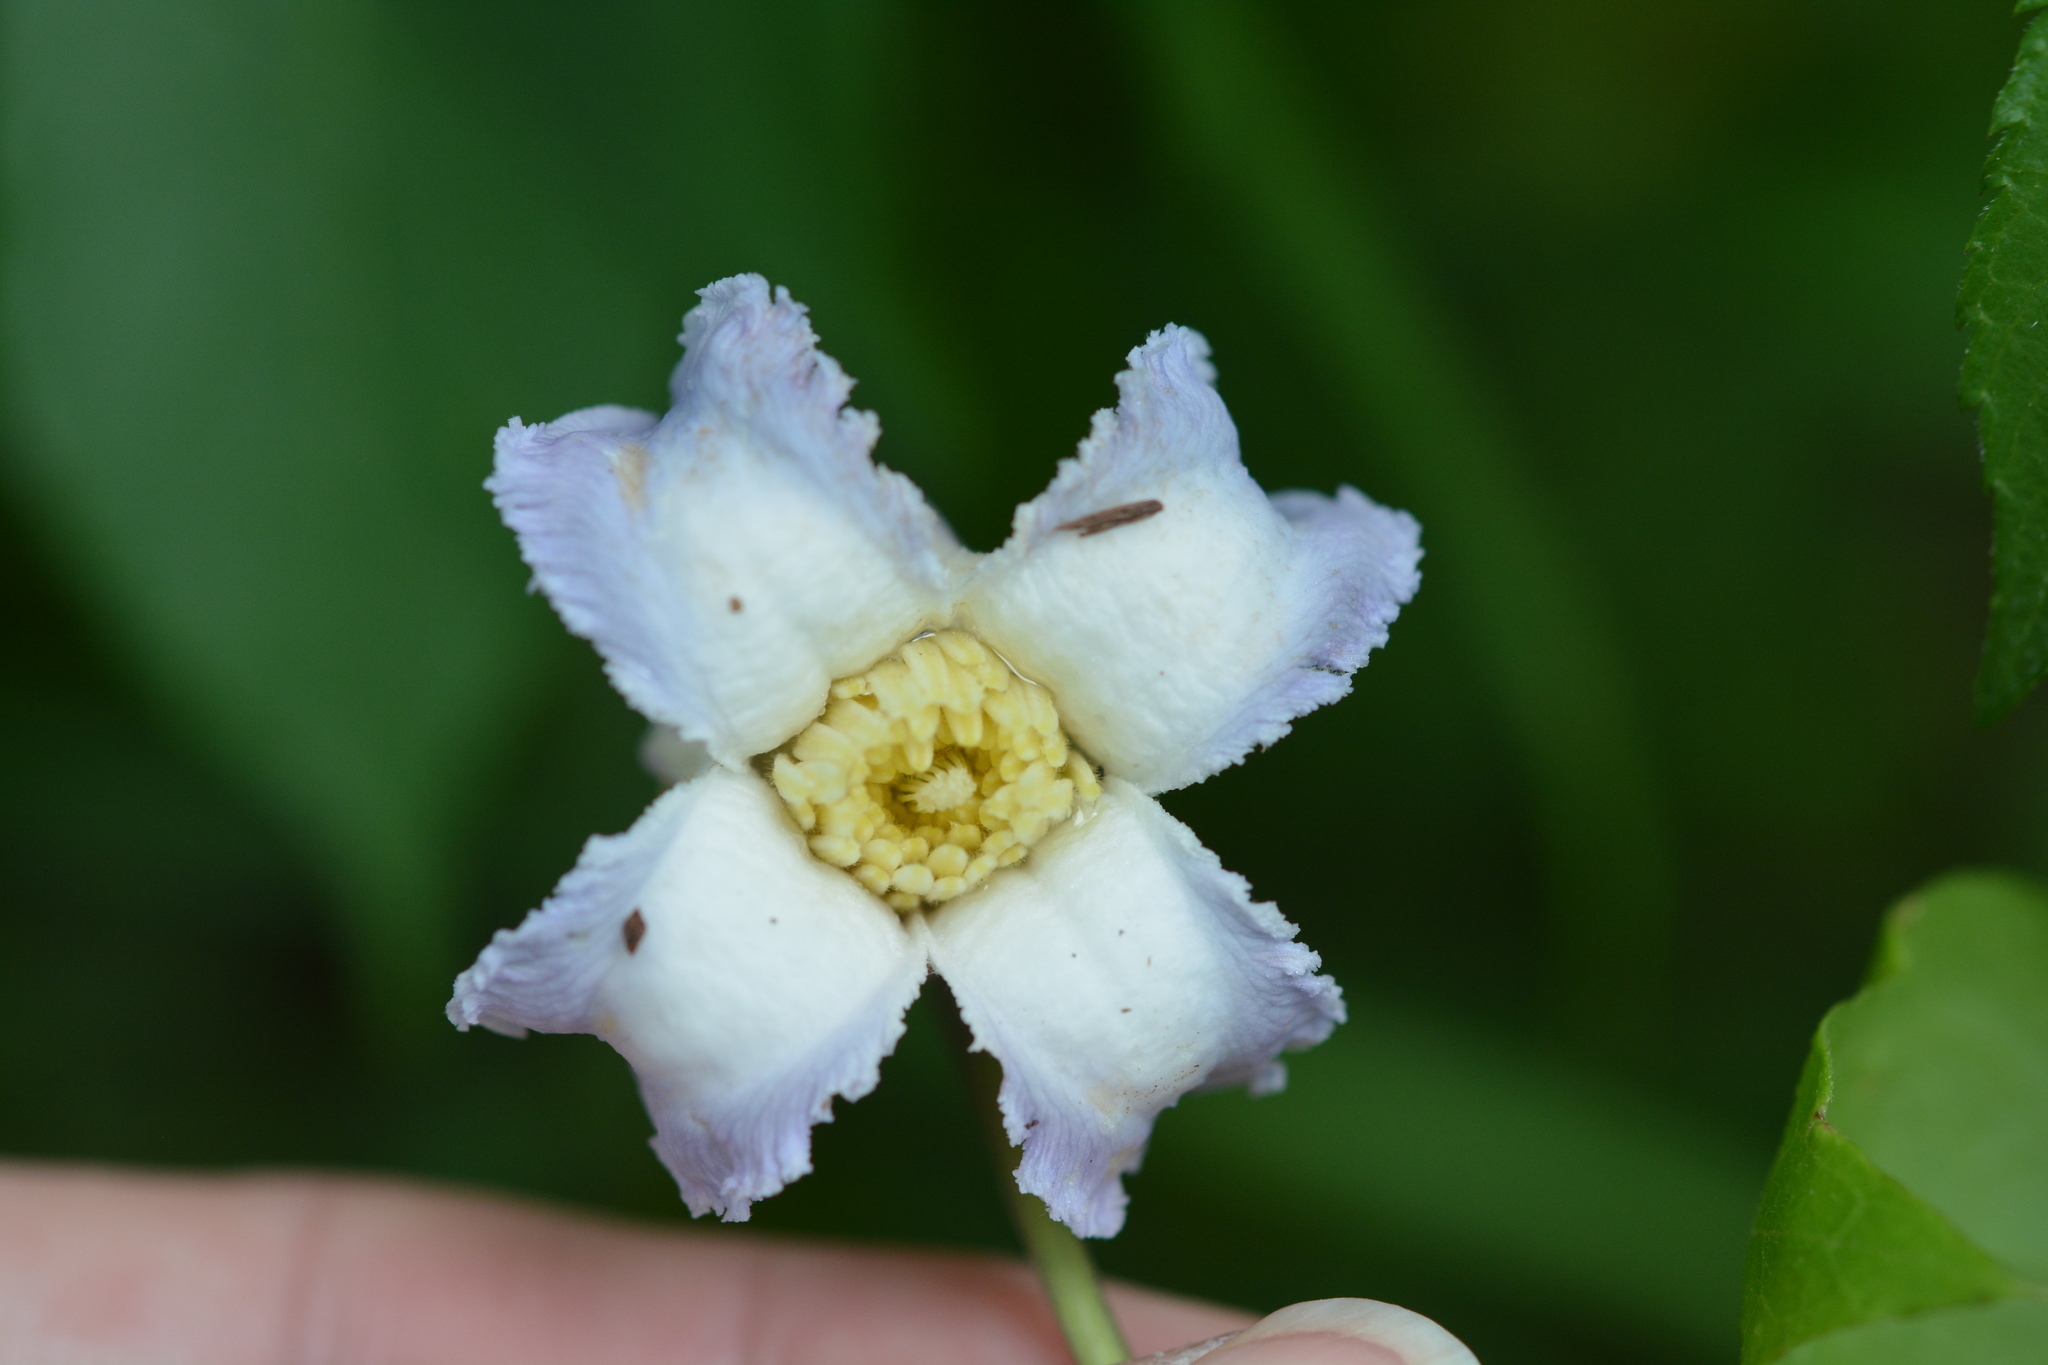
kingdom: Plantae
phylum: Tracheophyta
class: Magnoliopsida
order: Ranunculales
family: Ranunculaceae
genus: Clematis
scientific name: Clematis crispa
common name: Curly clematis
